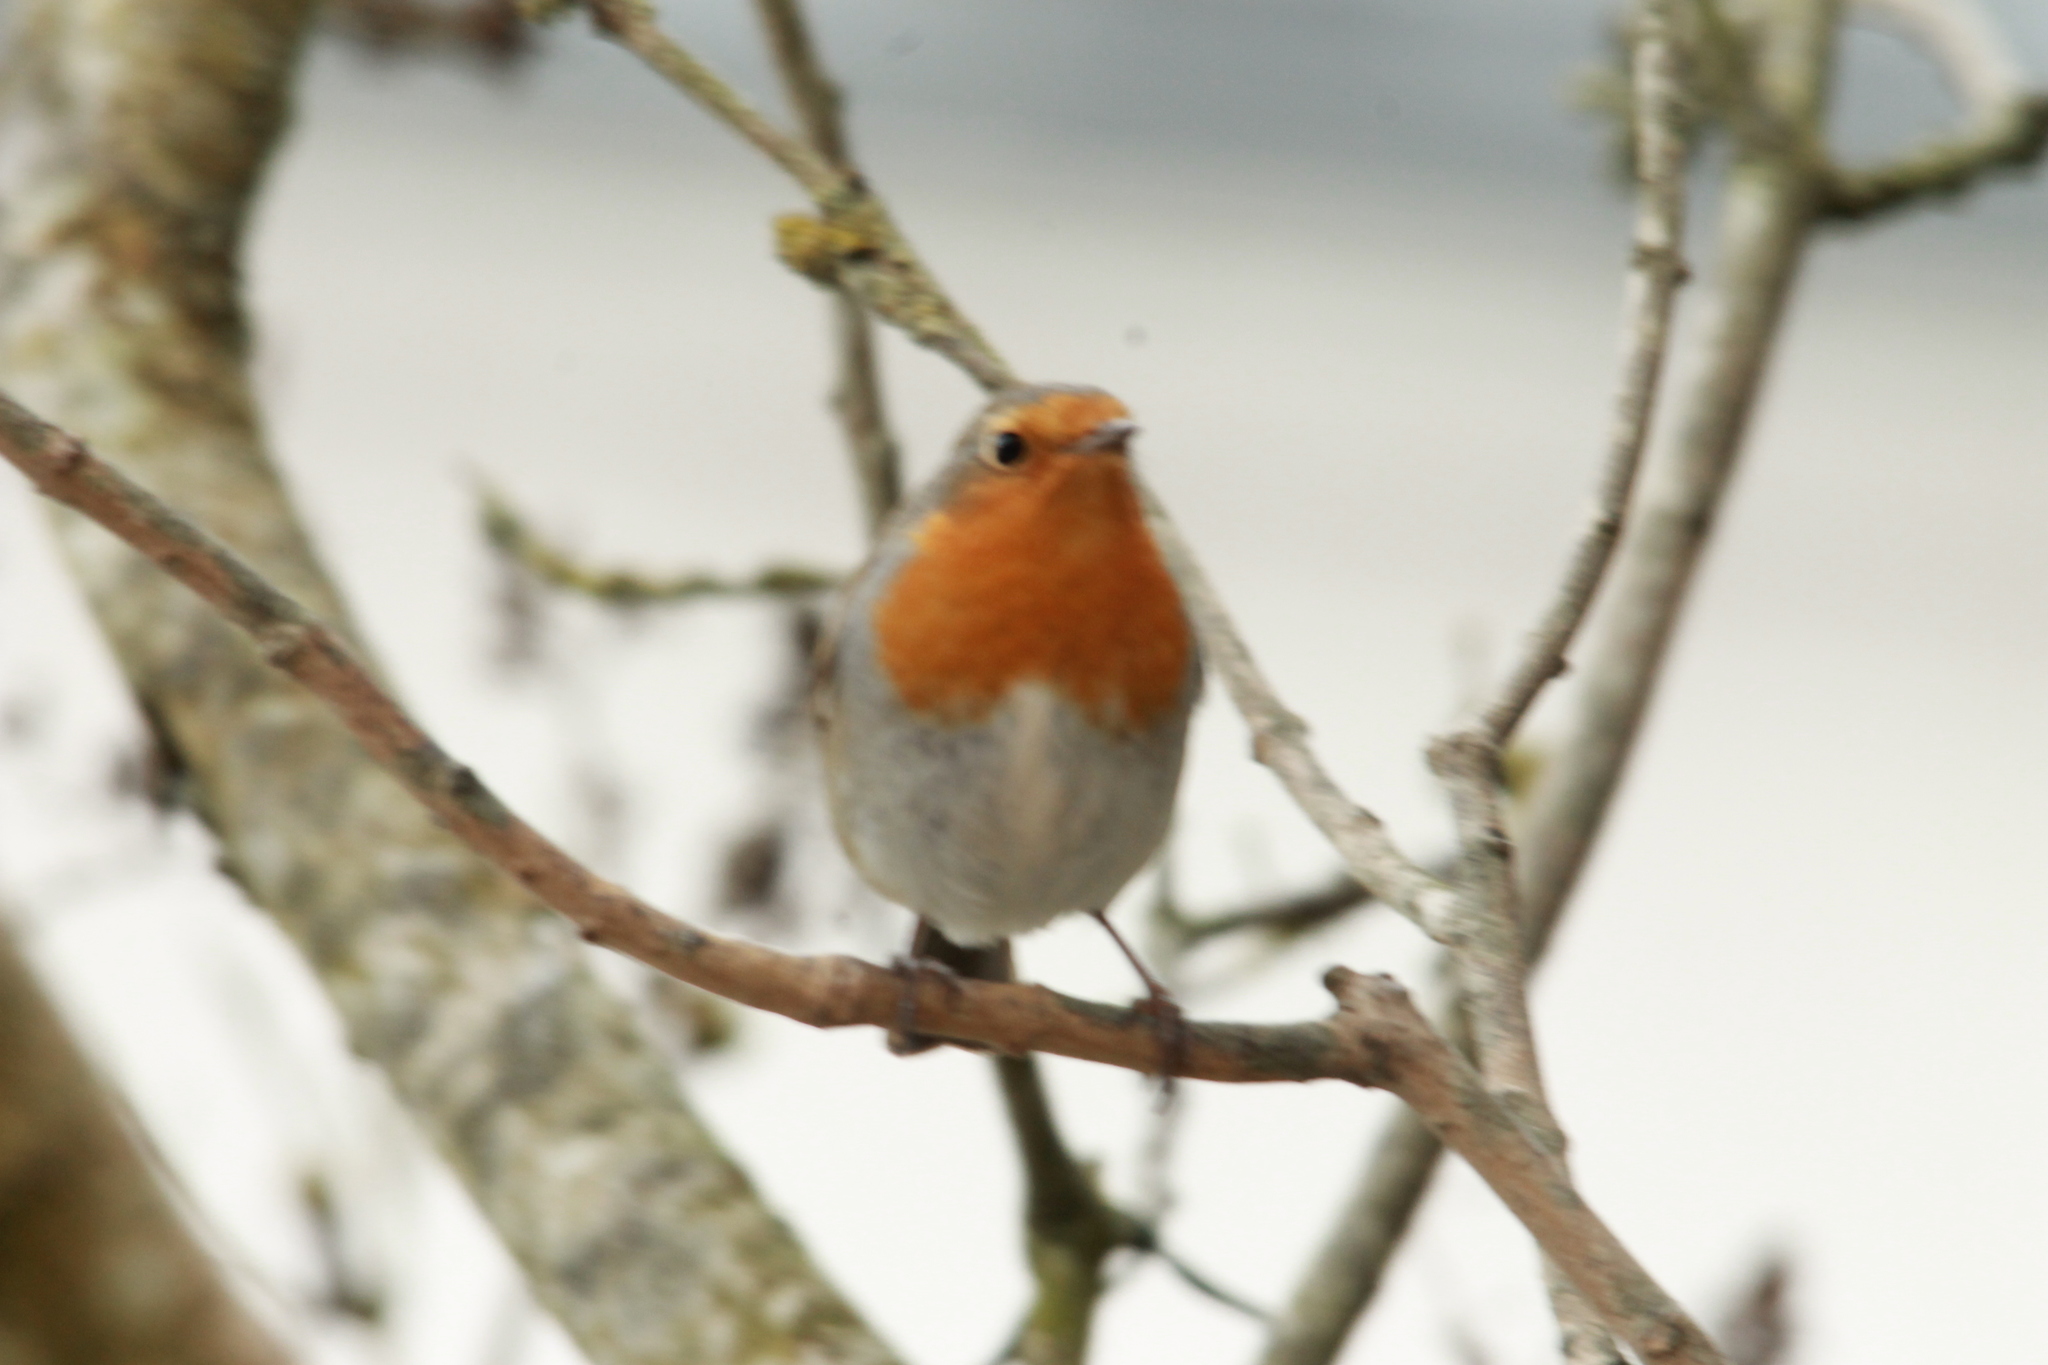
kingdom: Animalia
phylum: Chordata
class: Aves
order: Passeriformes
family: Muscicapidae
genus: Erithacus
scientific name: Erithacus rubecula
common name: European robin
